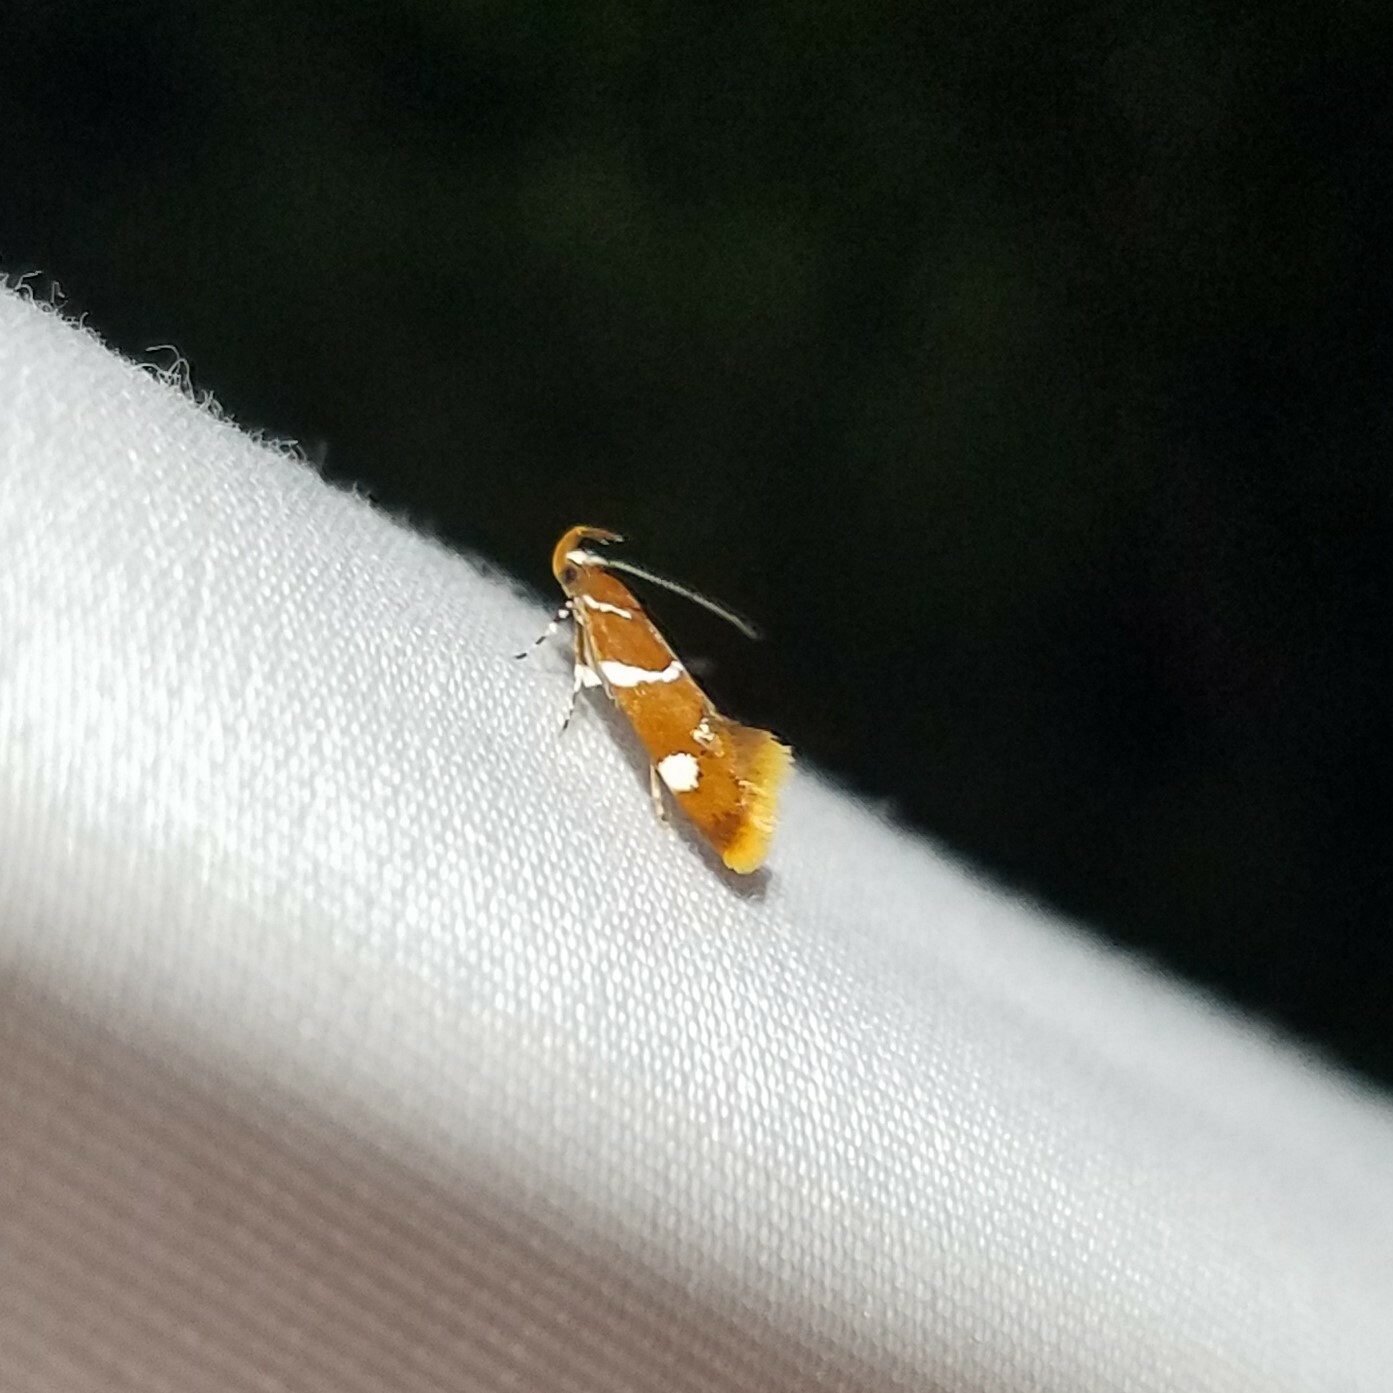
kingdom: Animalia
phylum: Arthropoda
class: Insecta
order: Lepidoptera
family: Oecophoridae
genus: Promalactis
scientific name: Promalactis suzukiella
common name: Moth
